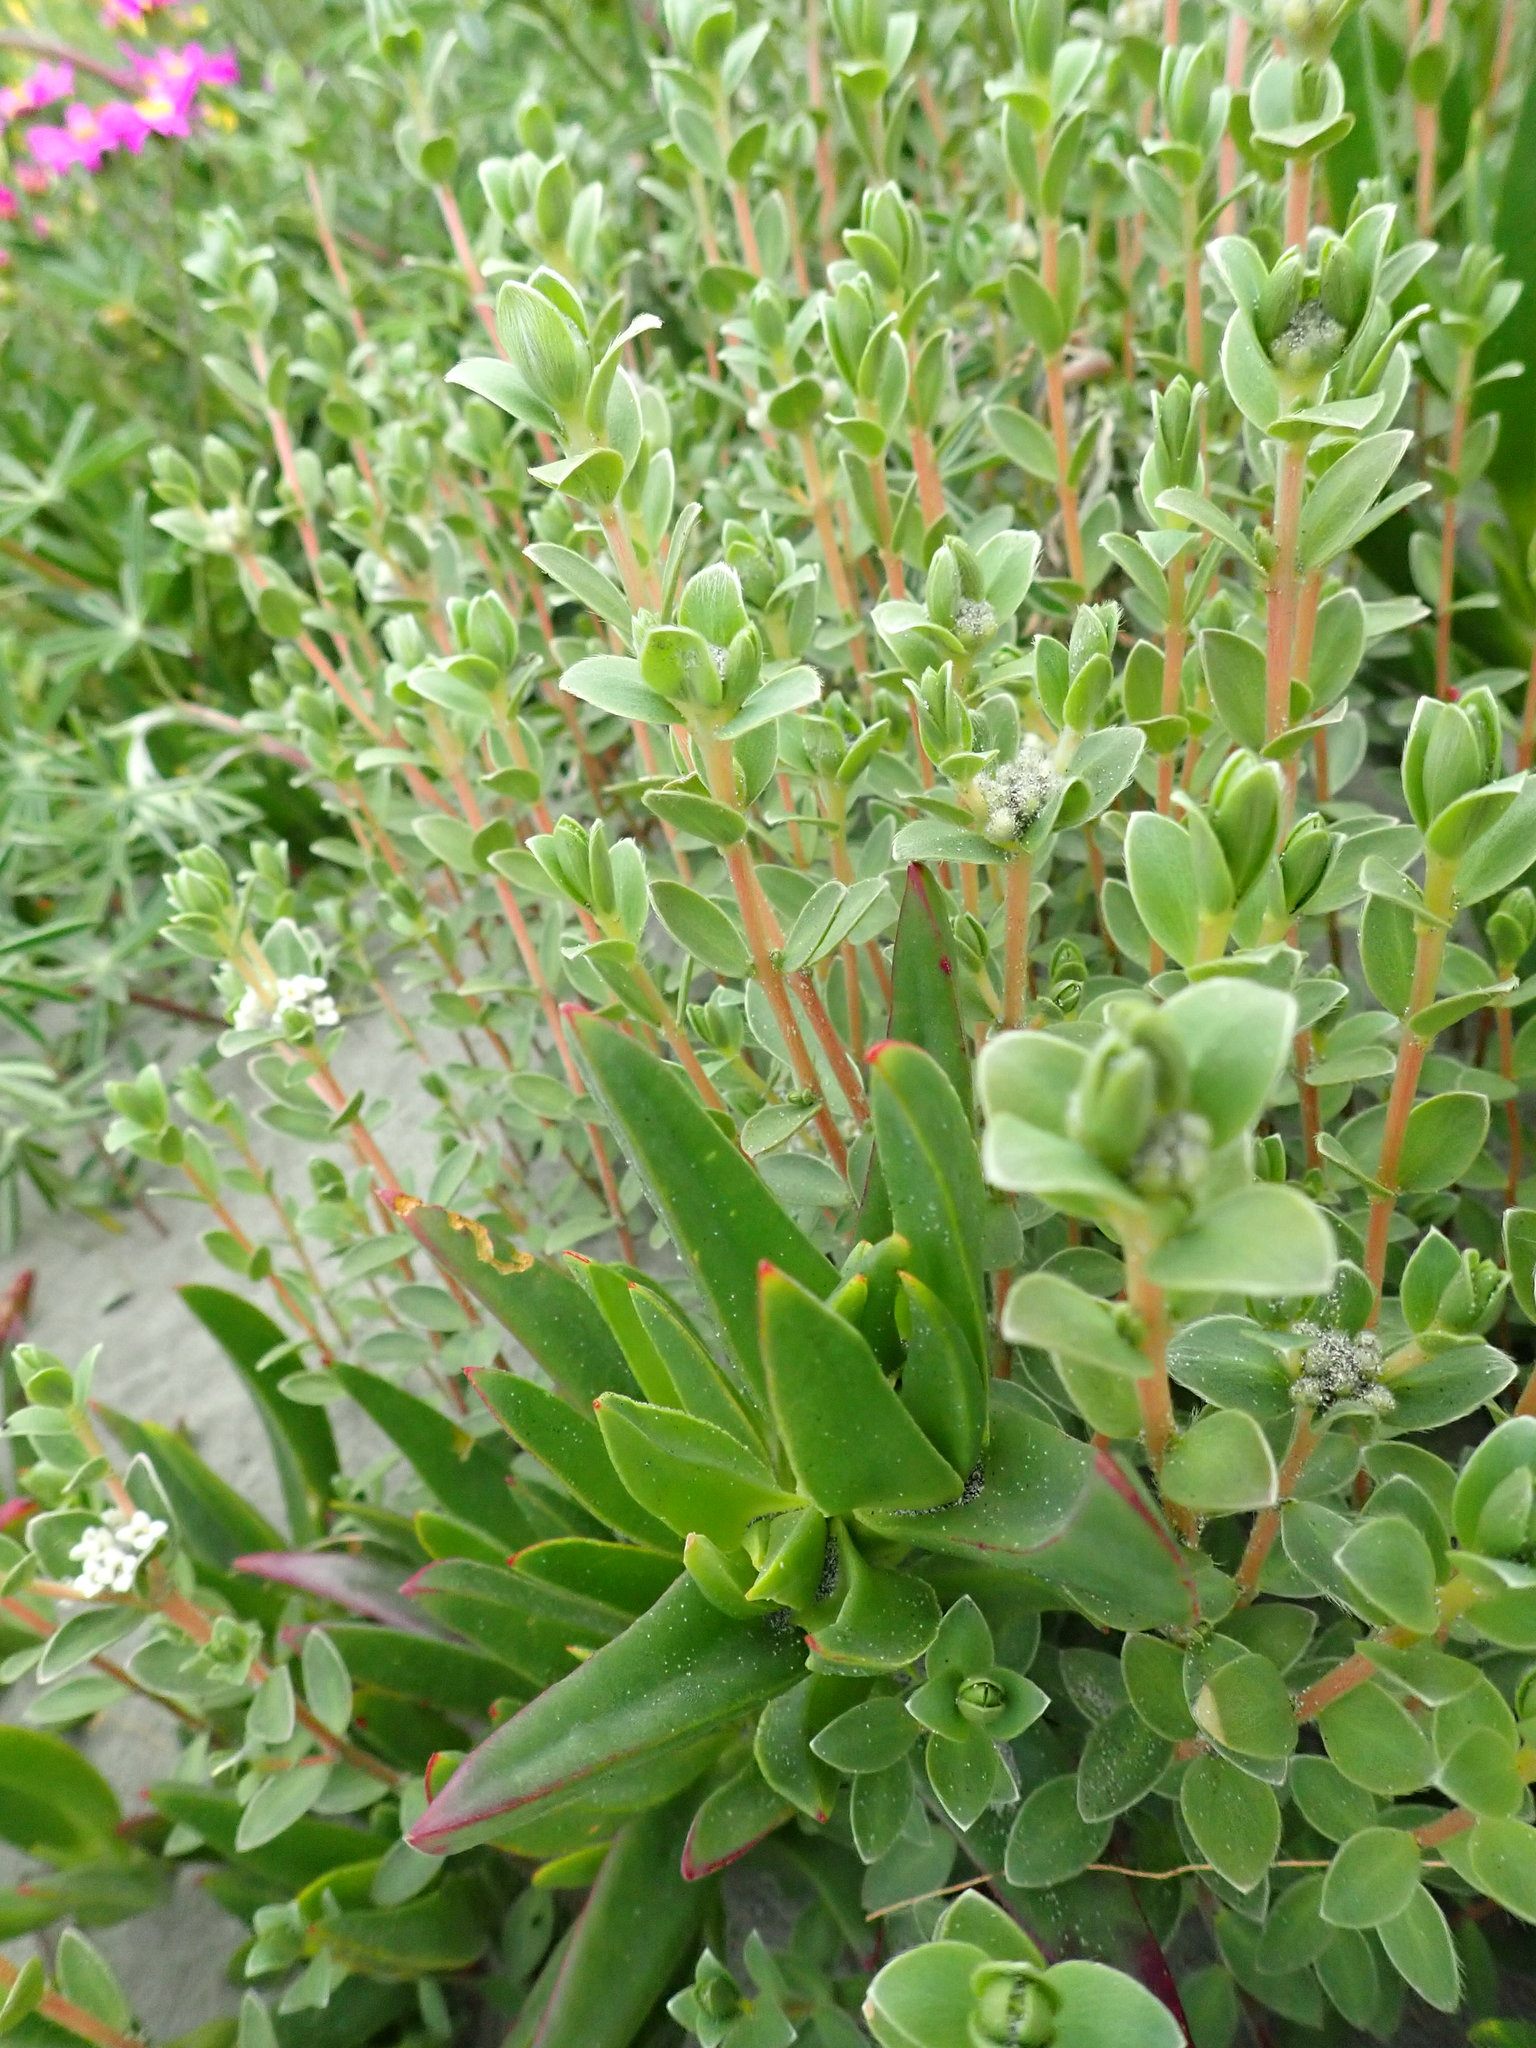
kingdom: Plantae
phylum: Tracheophyta
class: Magnoliopsida
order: Malvales
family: Thymelaeaceae
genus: Pimelea
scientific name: Pimelea villosa
